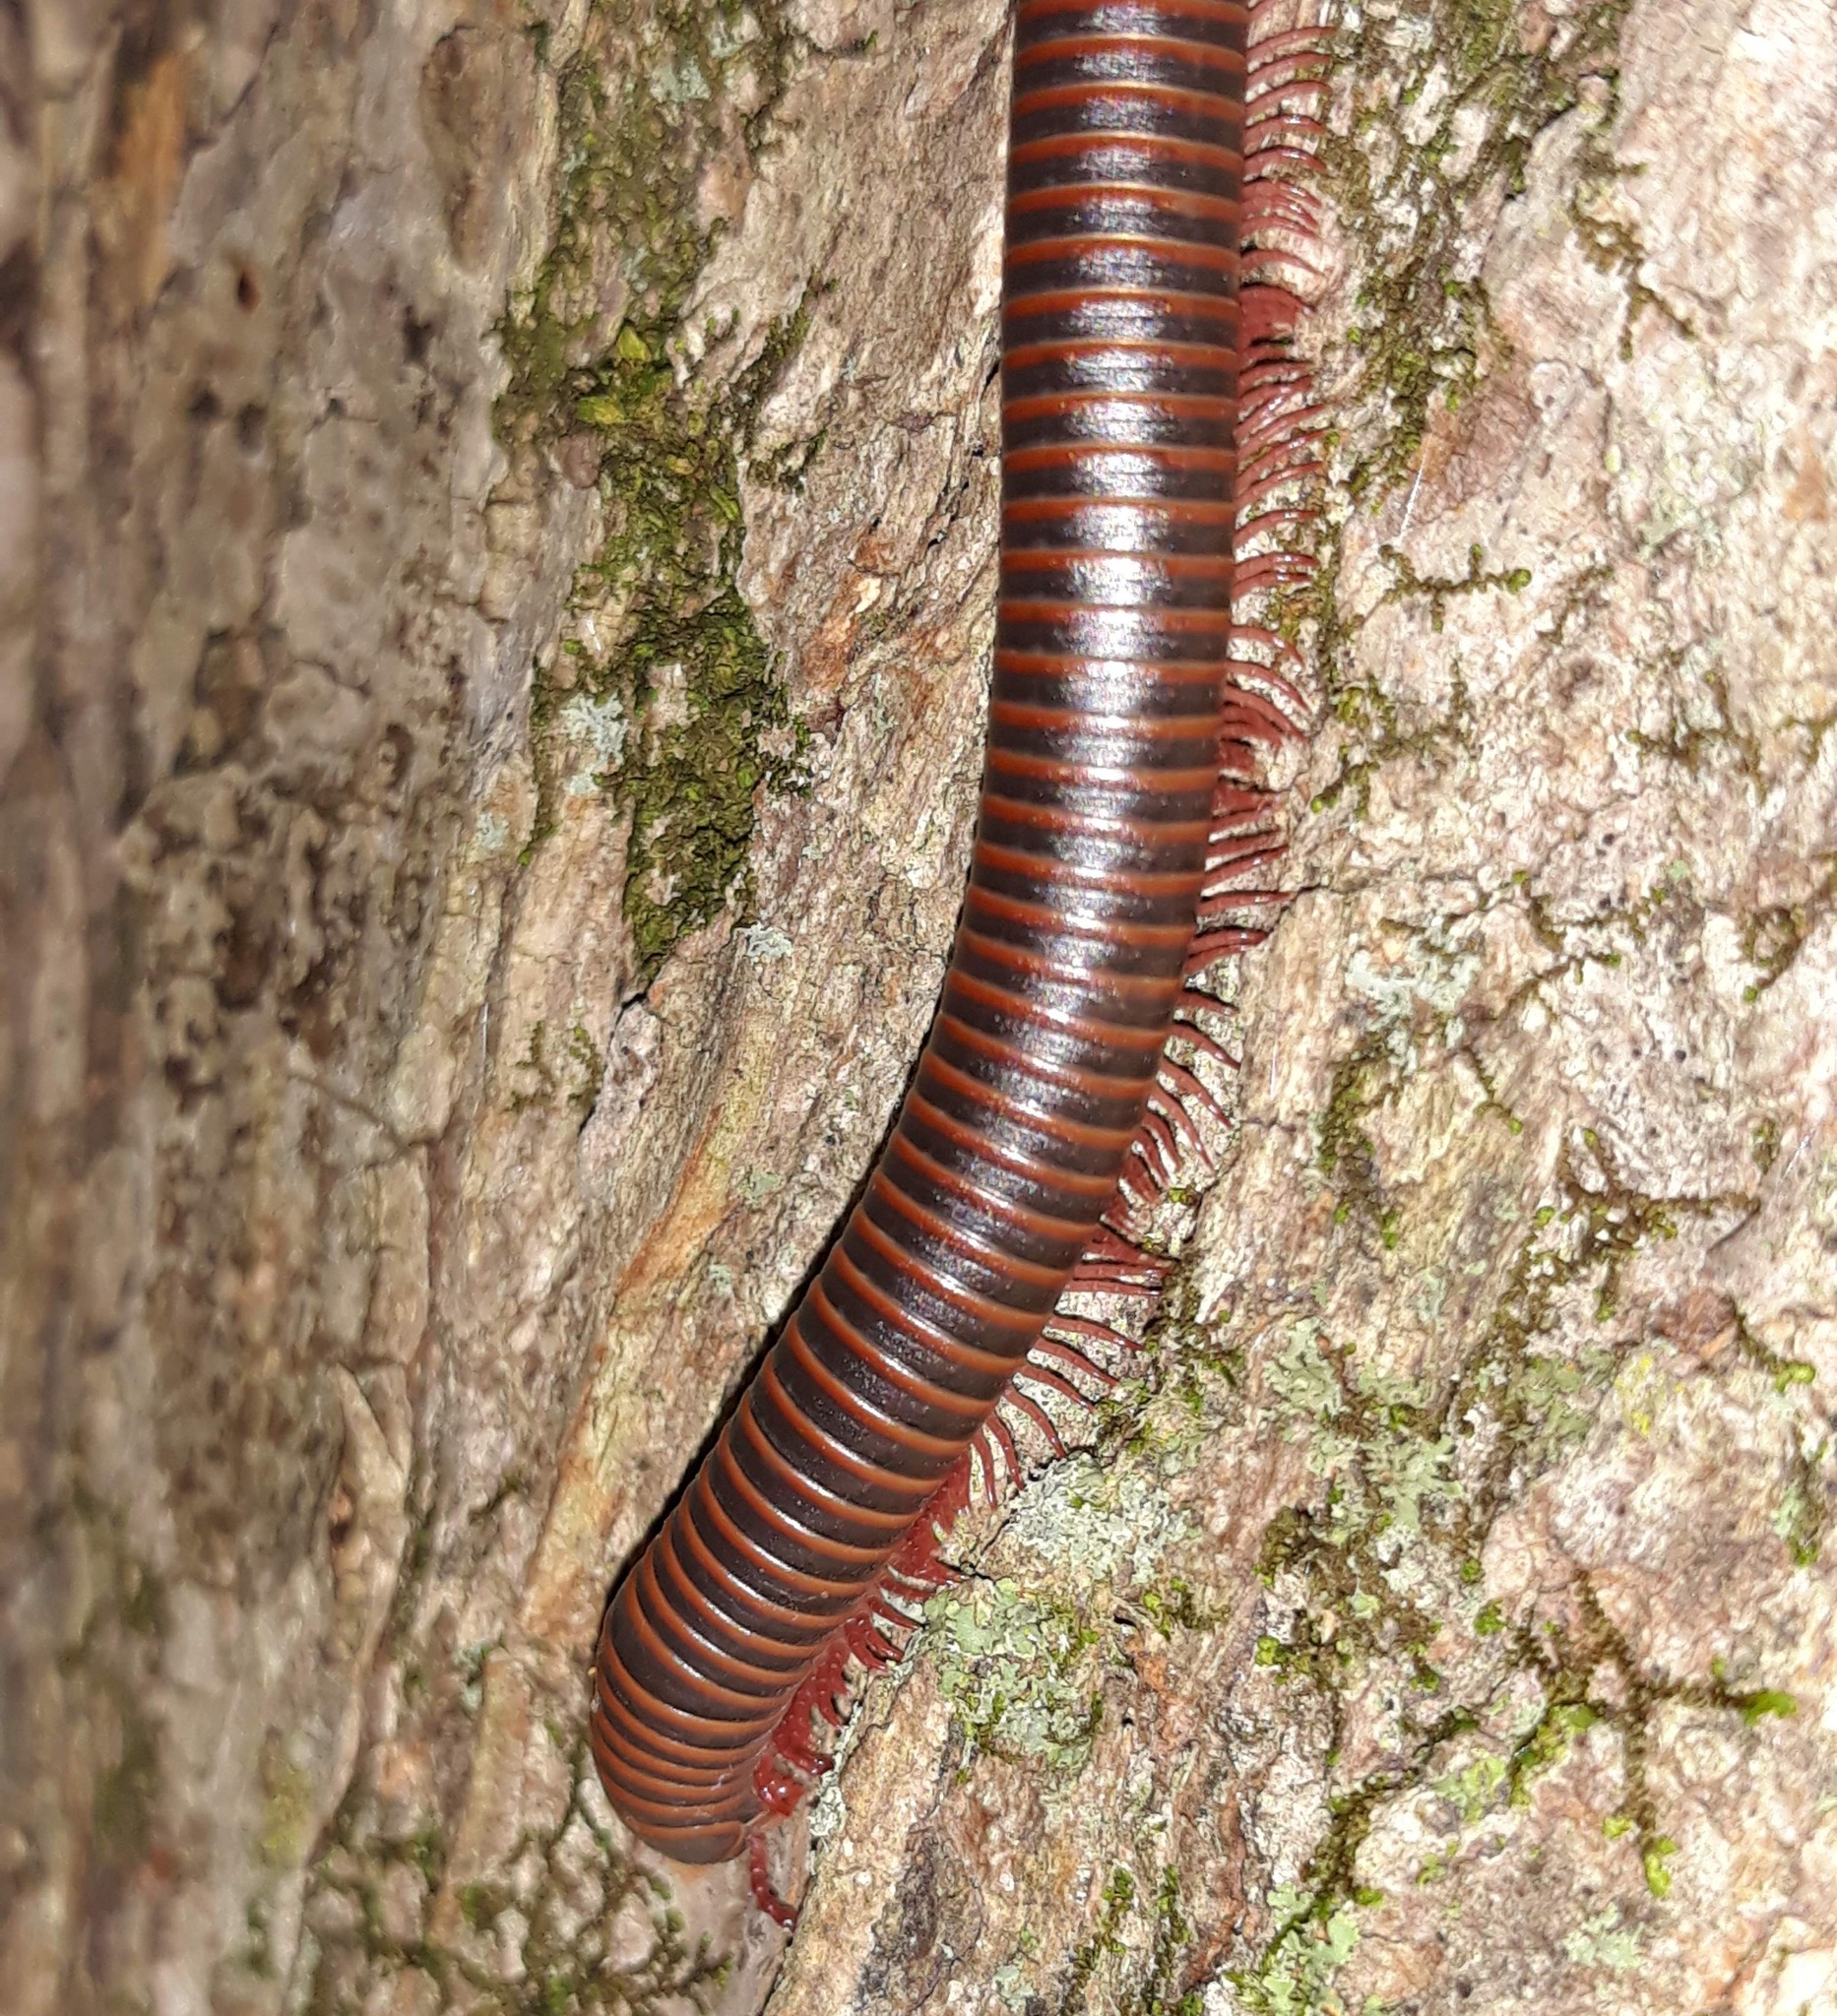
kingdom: Animalia
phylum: Arthropoda
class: Diplopoda
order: Spirobolida
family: Spirobolidae
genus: Narceus
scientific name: Narceus
